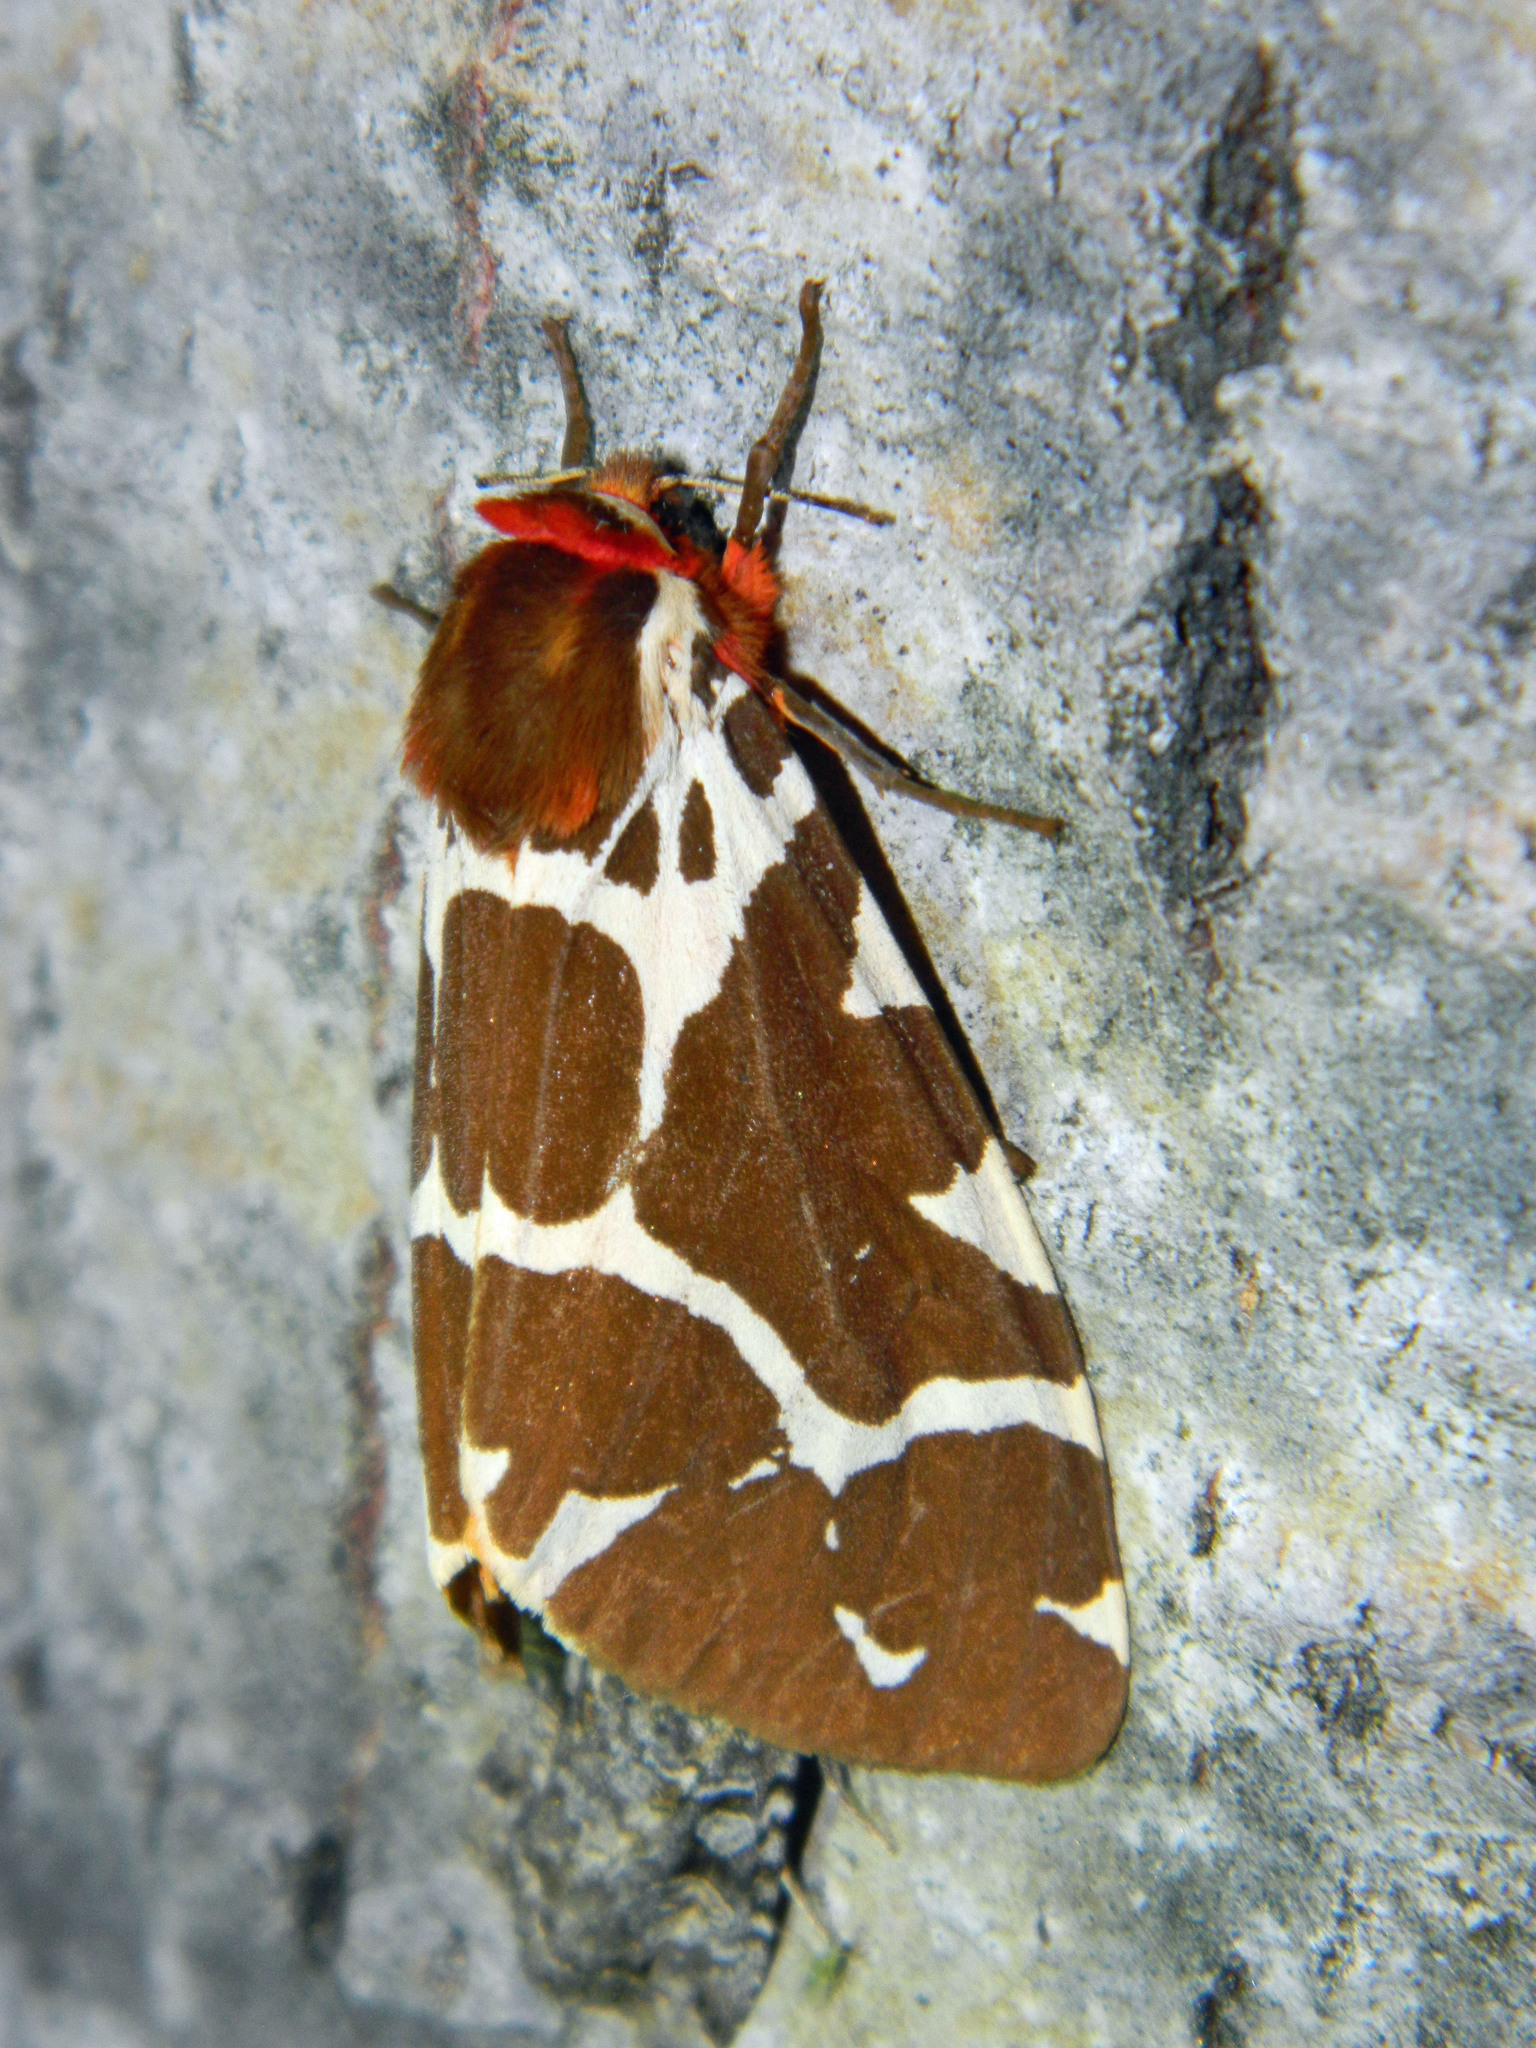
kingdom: Animalia
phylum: Arthropoda
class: Insecta
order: Lepidoptera
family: Erebidae
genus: Arctia
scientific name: Arctia caja
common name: Garden tiger
